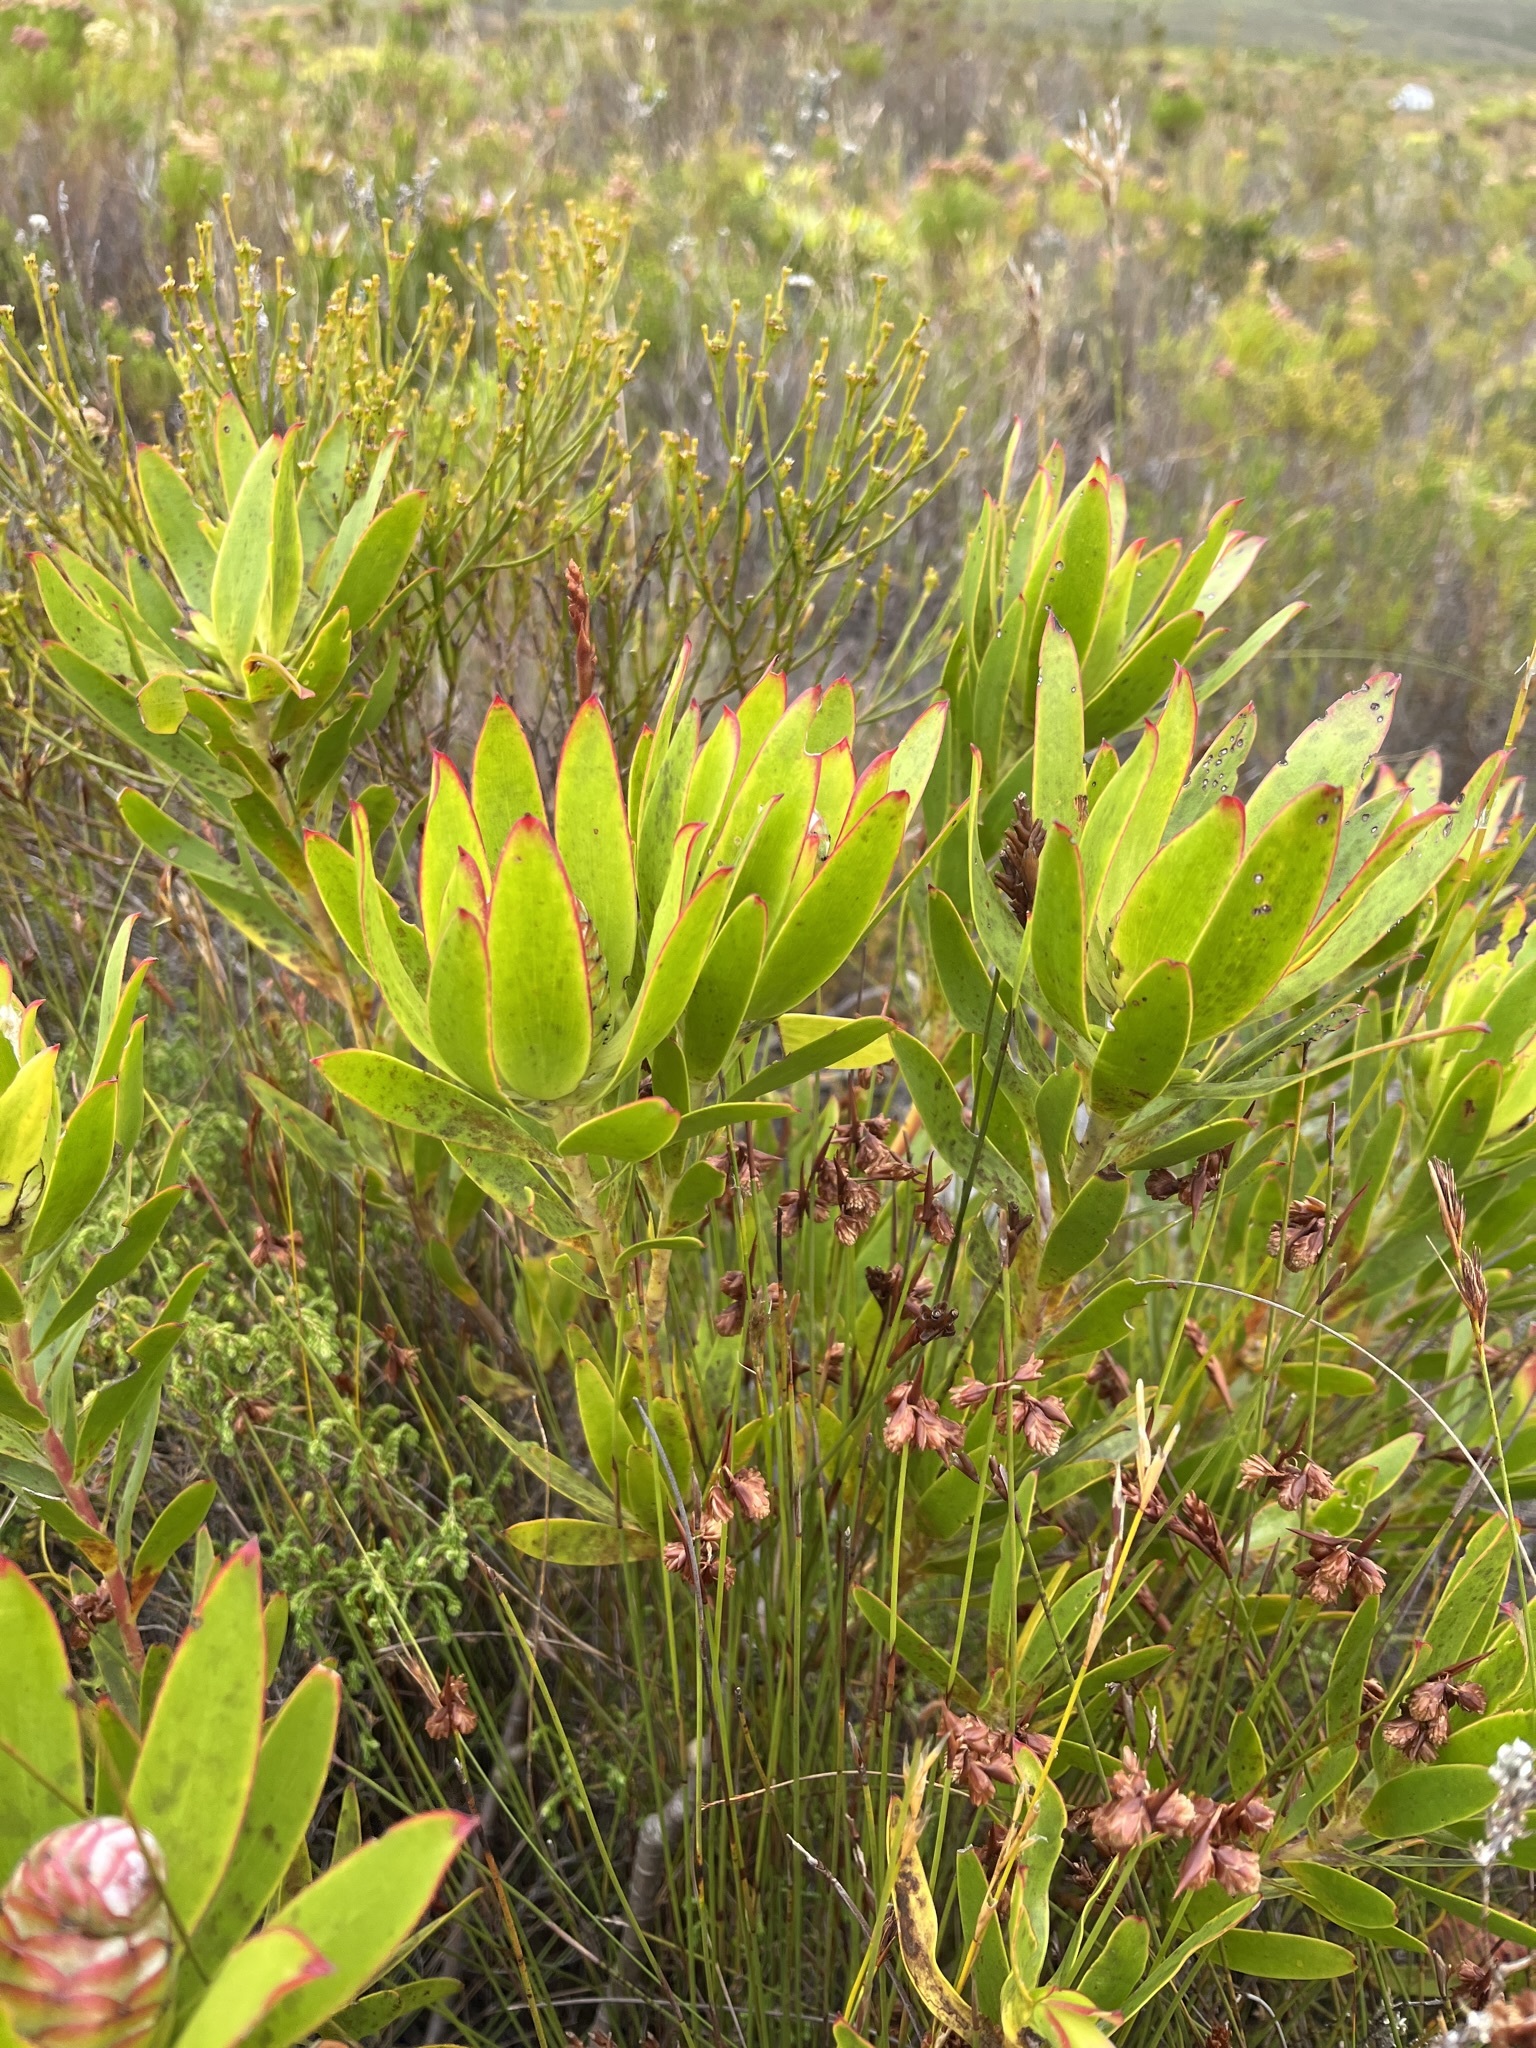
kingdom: Plantae
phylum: Tracheophyta
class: Magnoliopsida
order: Proteales
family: Proteaceae
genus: Leucadendron
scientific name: Leucadendron gandogeri
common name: Broad-leaf conebush
